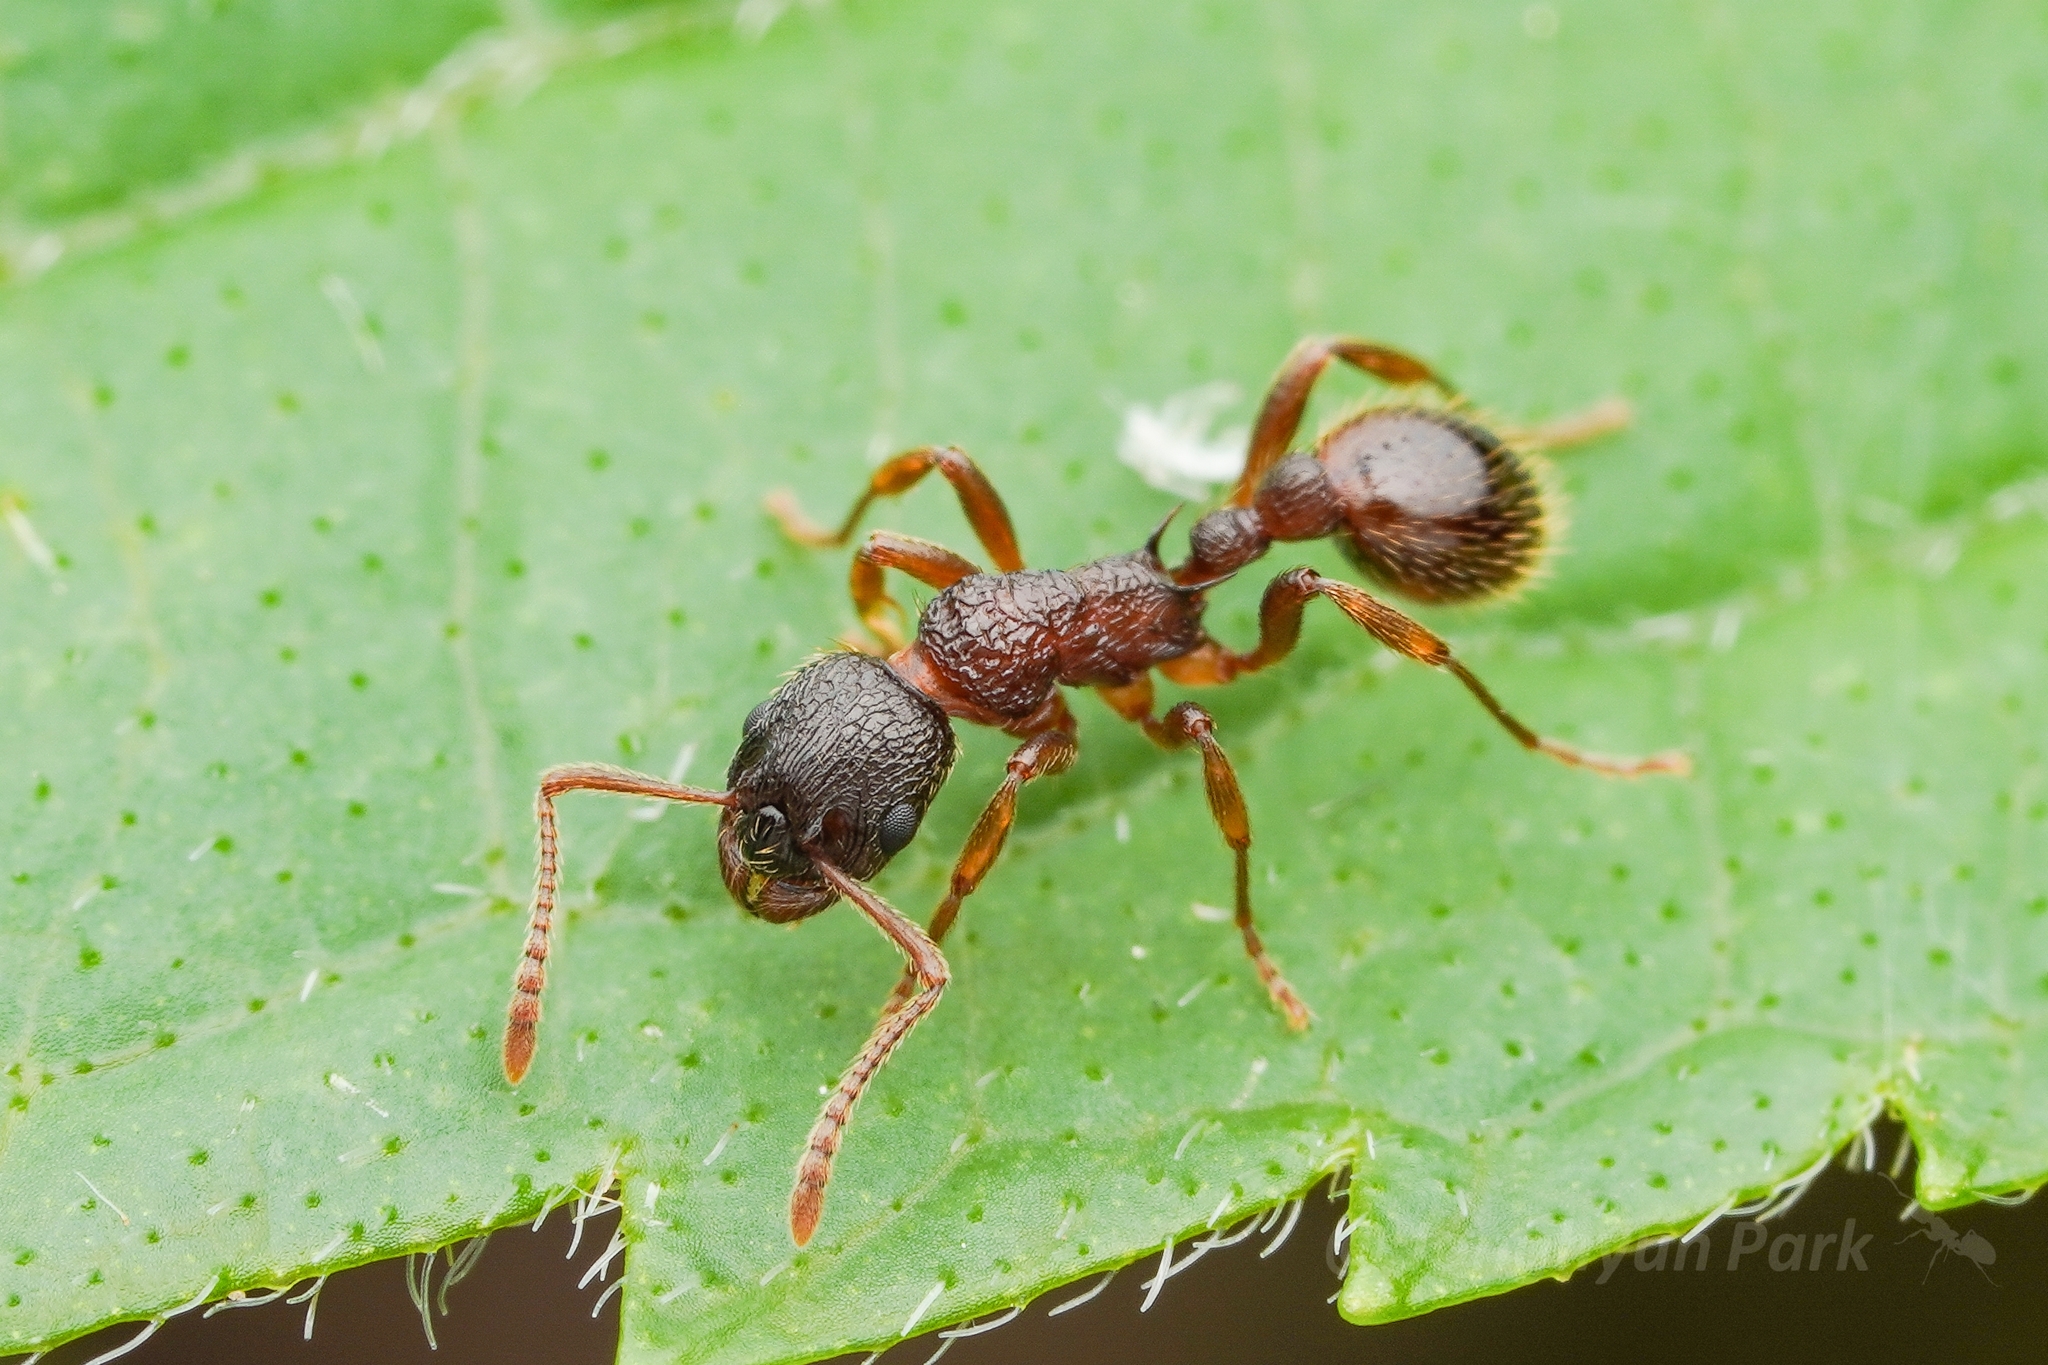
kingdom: Animalia
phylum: Arthropoda
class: Insecta
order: Hymenoptera
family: Formicidae
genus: Myrmica
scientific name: Myrmica kotokui
